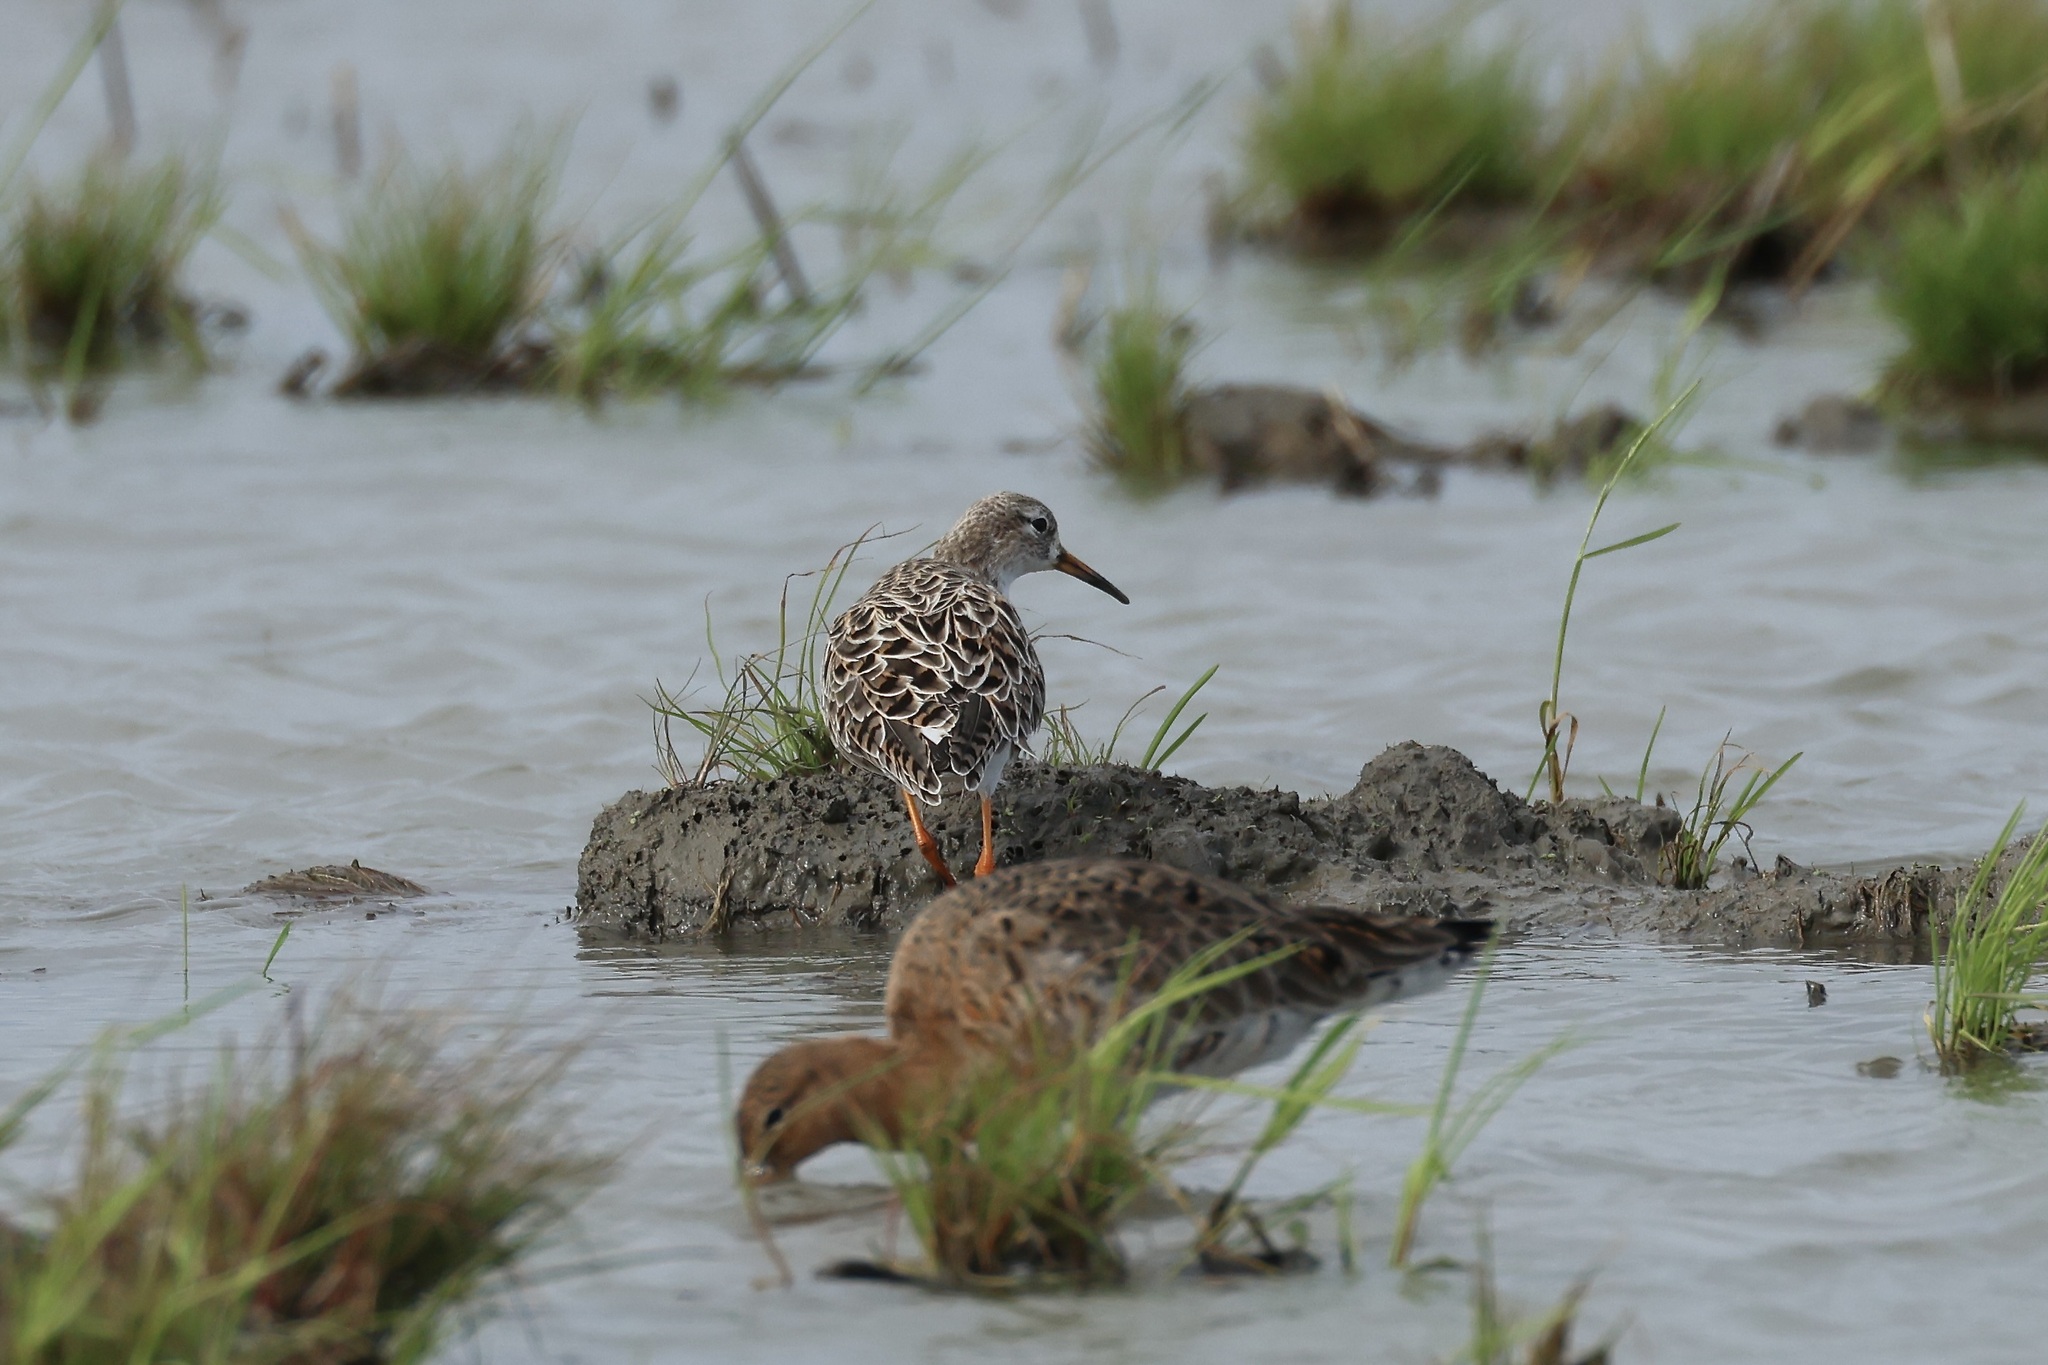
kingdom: Animalia
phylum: Chordata
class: Aves
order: Charadriiformes
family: Scolopacidae
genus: Calidris
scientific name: Calidris pugnax
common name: Ruff
